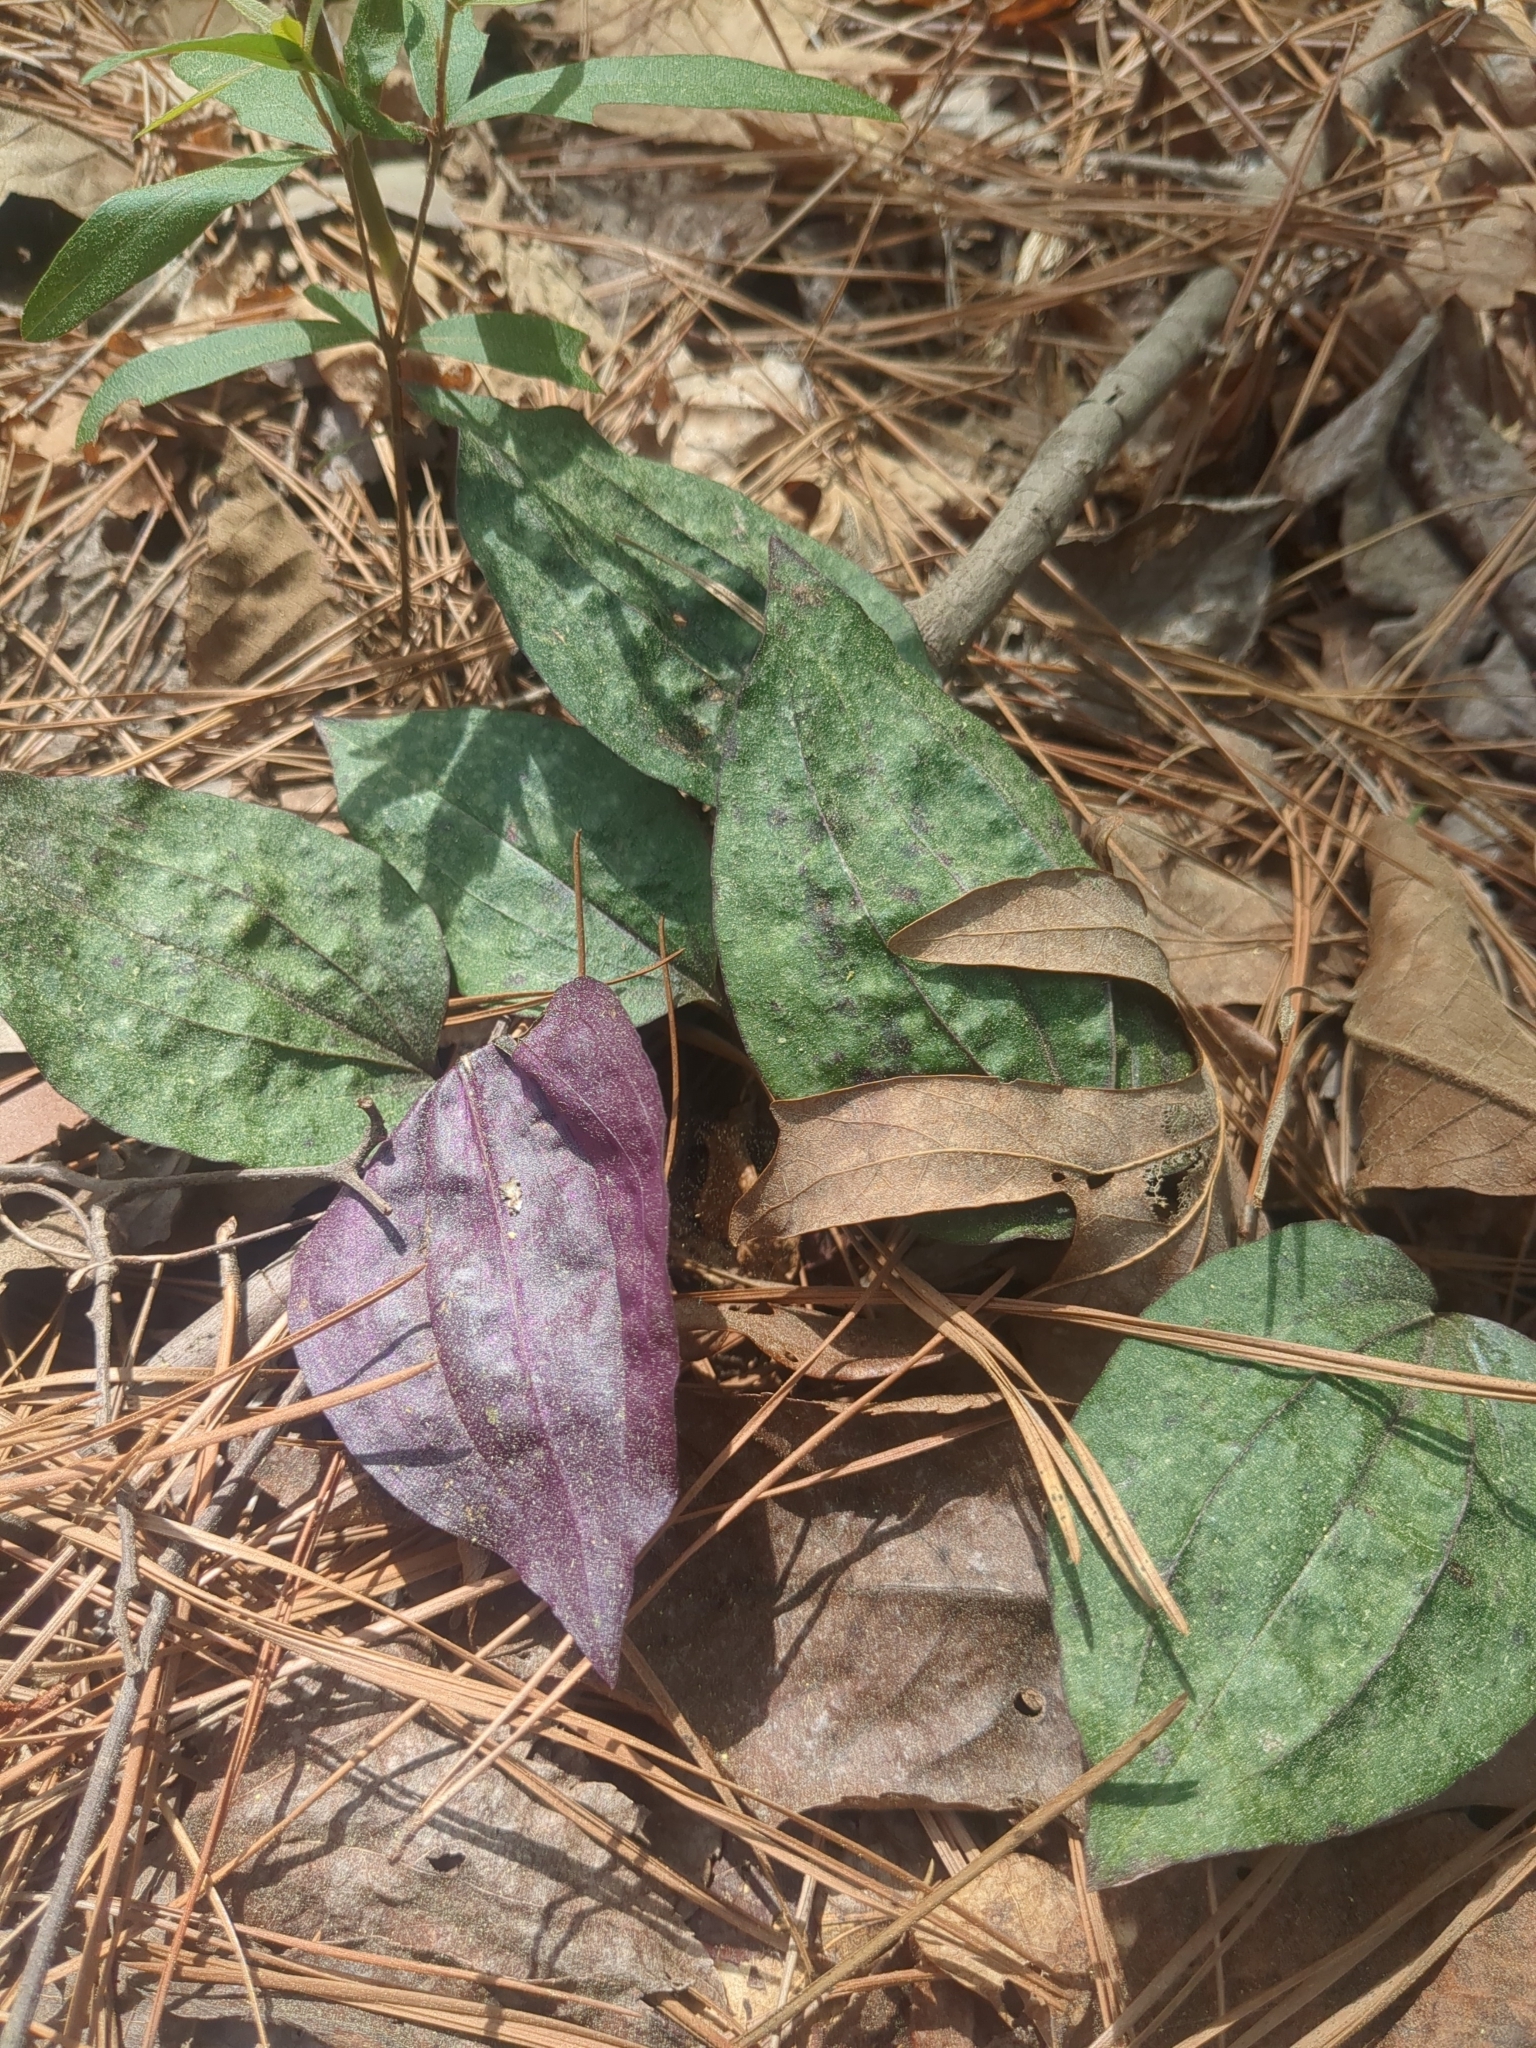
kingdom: Plantae
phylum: Tracheophyta
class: Liliopsida
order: Asparagales
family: Orchidaceae
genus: Tipularia
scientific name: Tipularia discolor
